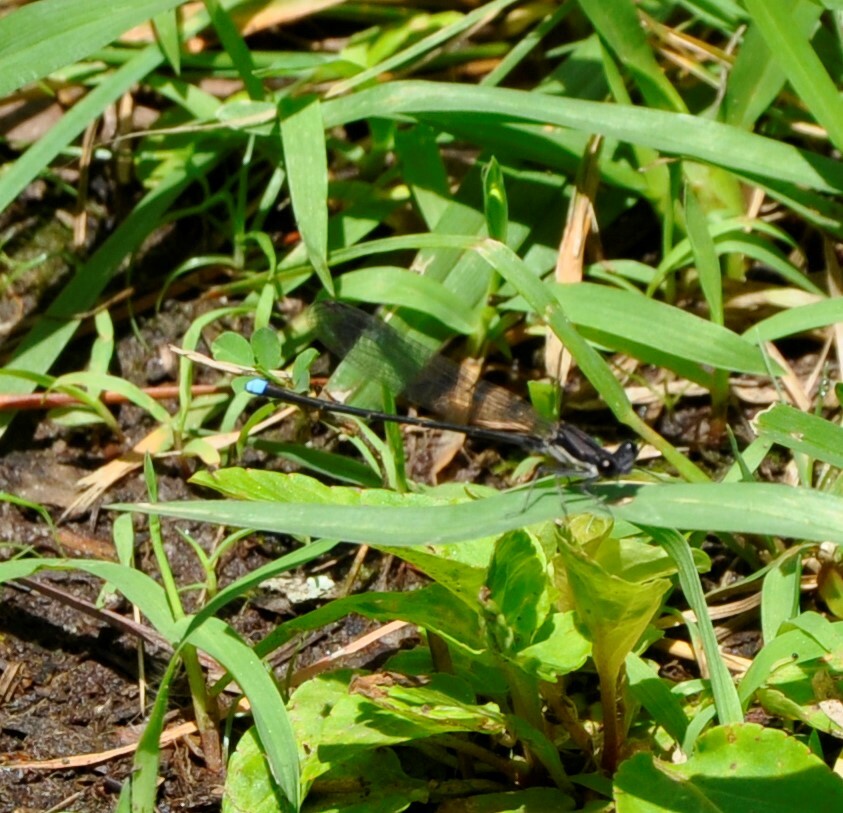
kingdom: Animalia
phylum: Arthropoda
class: Insecta
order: Odonata
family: Coenagrionidae
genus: Argia
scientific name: Argia tibialis
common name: Blue-tipped dancer
